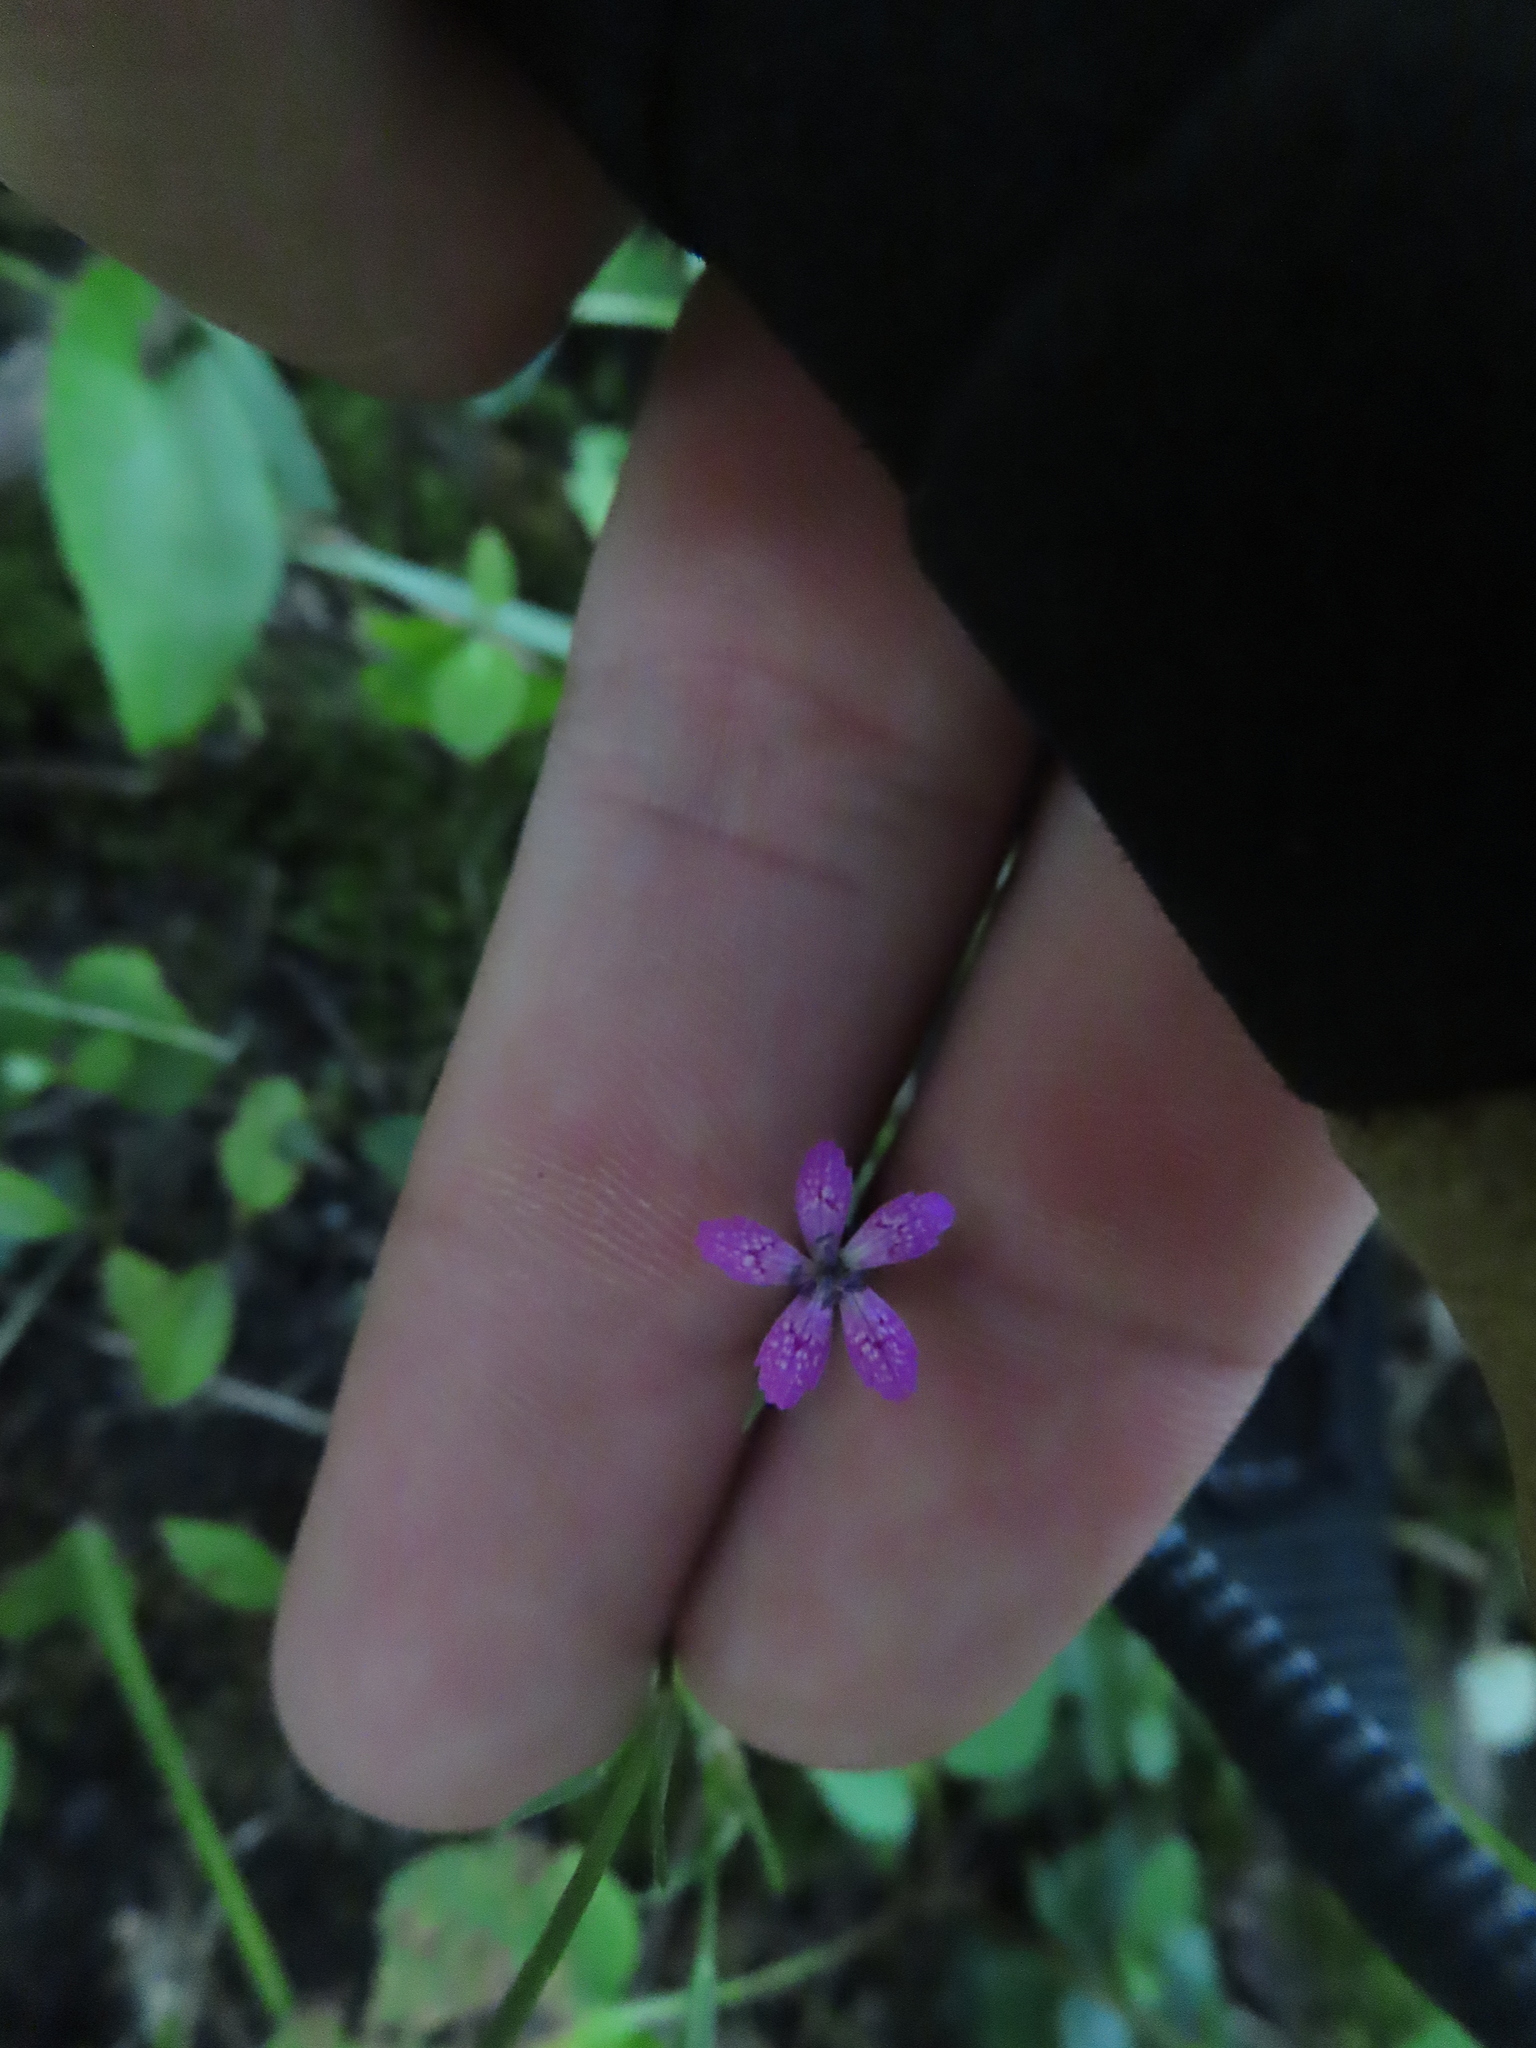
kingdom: Plantae
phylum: Tracheophyta
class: Magnoliopsida
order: Caryophyllales
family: Caryophyllaceae
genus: Dianthus
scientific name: Dianthus armeria
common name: Deptford pink
